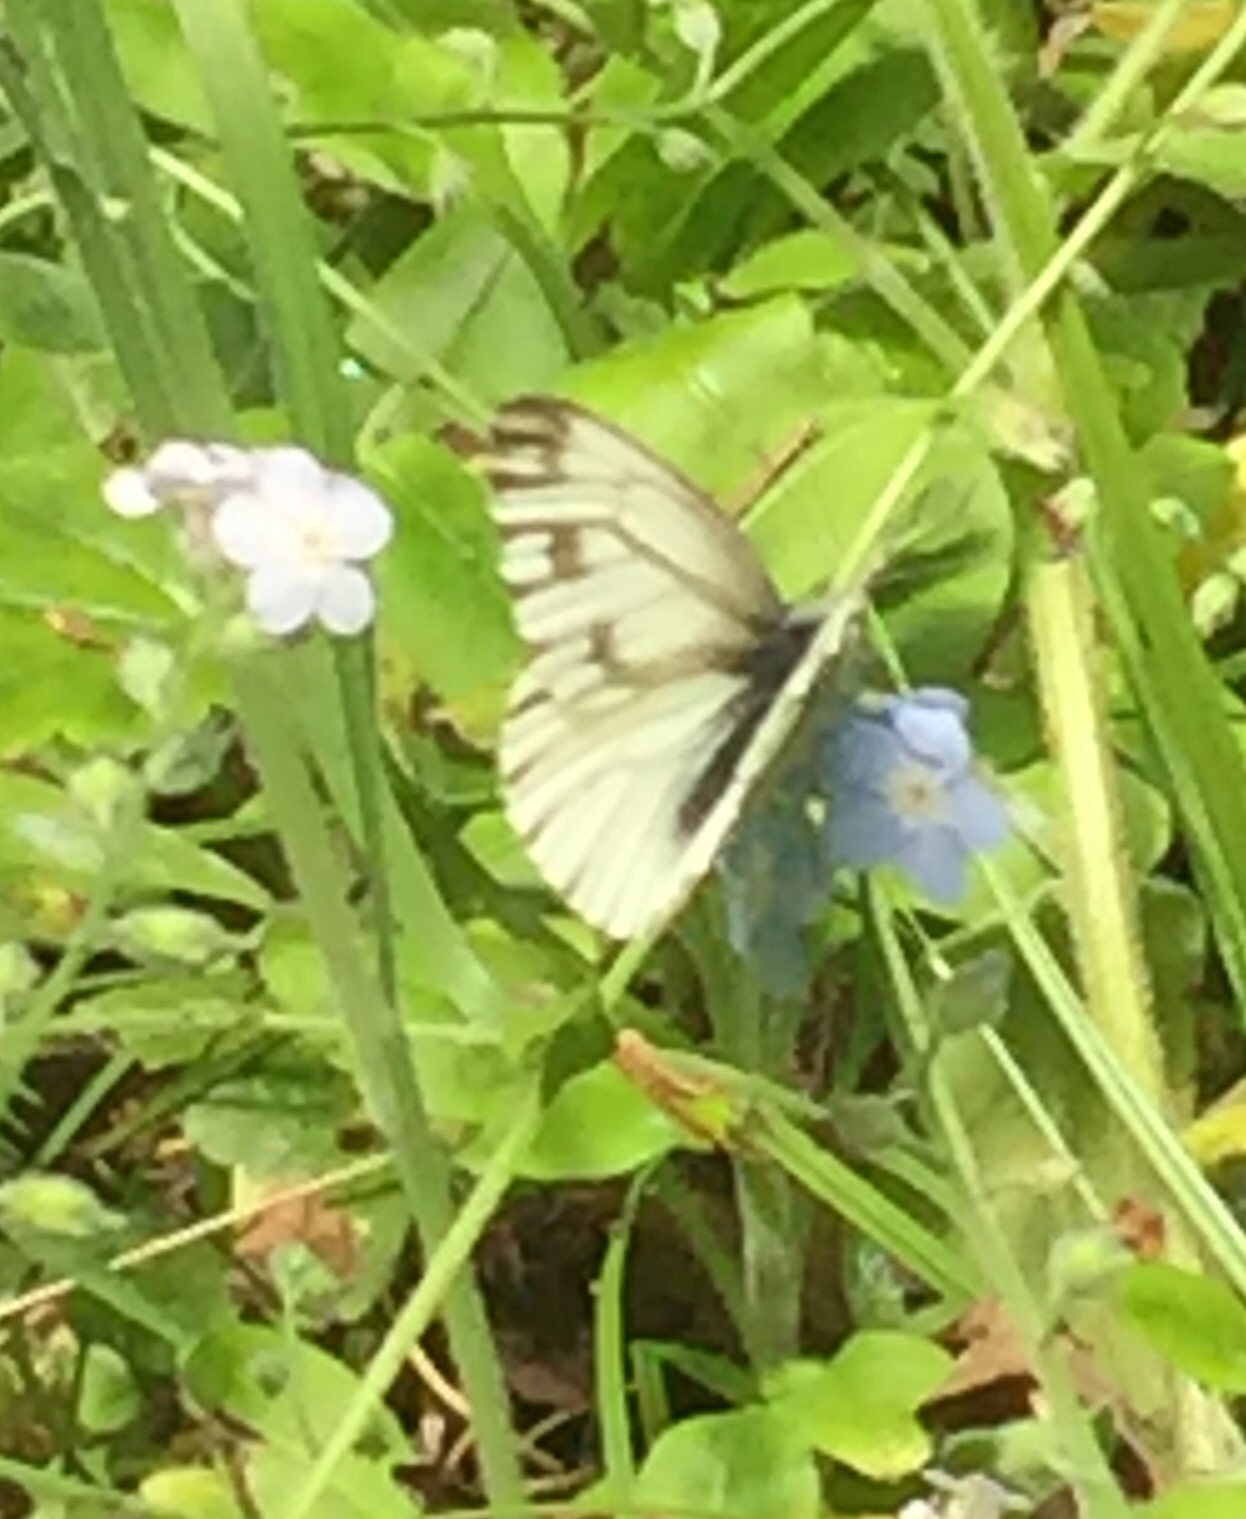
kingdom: Animalia
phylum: Arthropoda
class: Insecta
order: Lepidoptera
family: Pieridae
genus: Pieris
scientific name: Pieris marginalis
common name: Margined white
